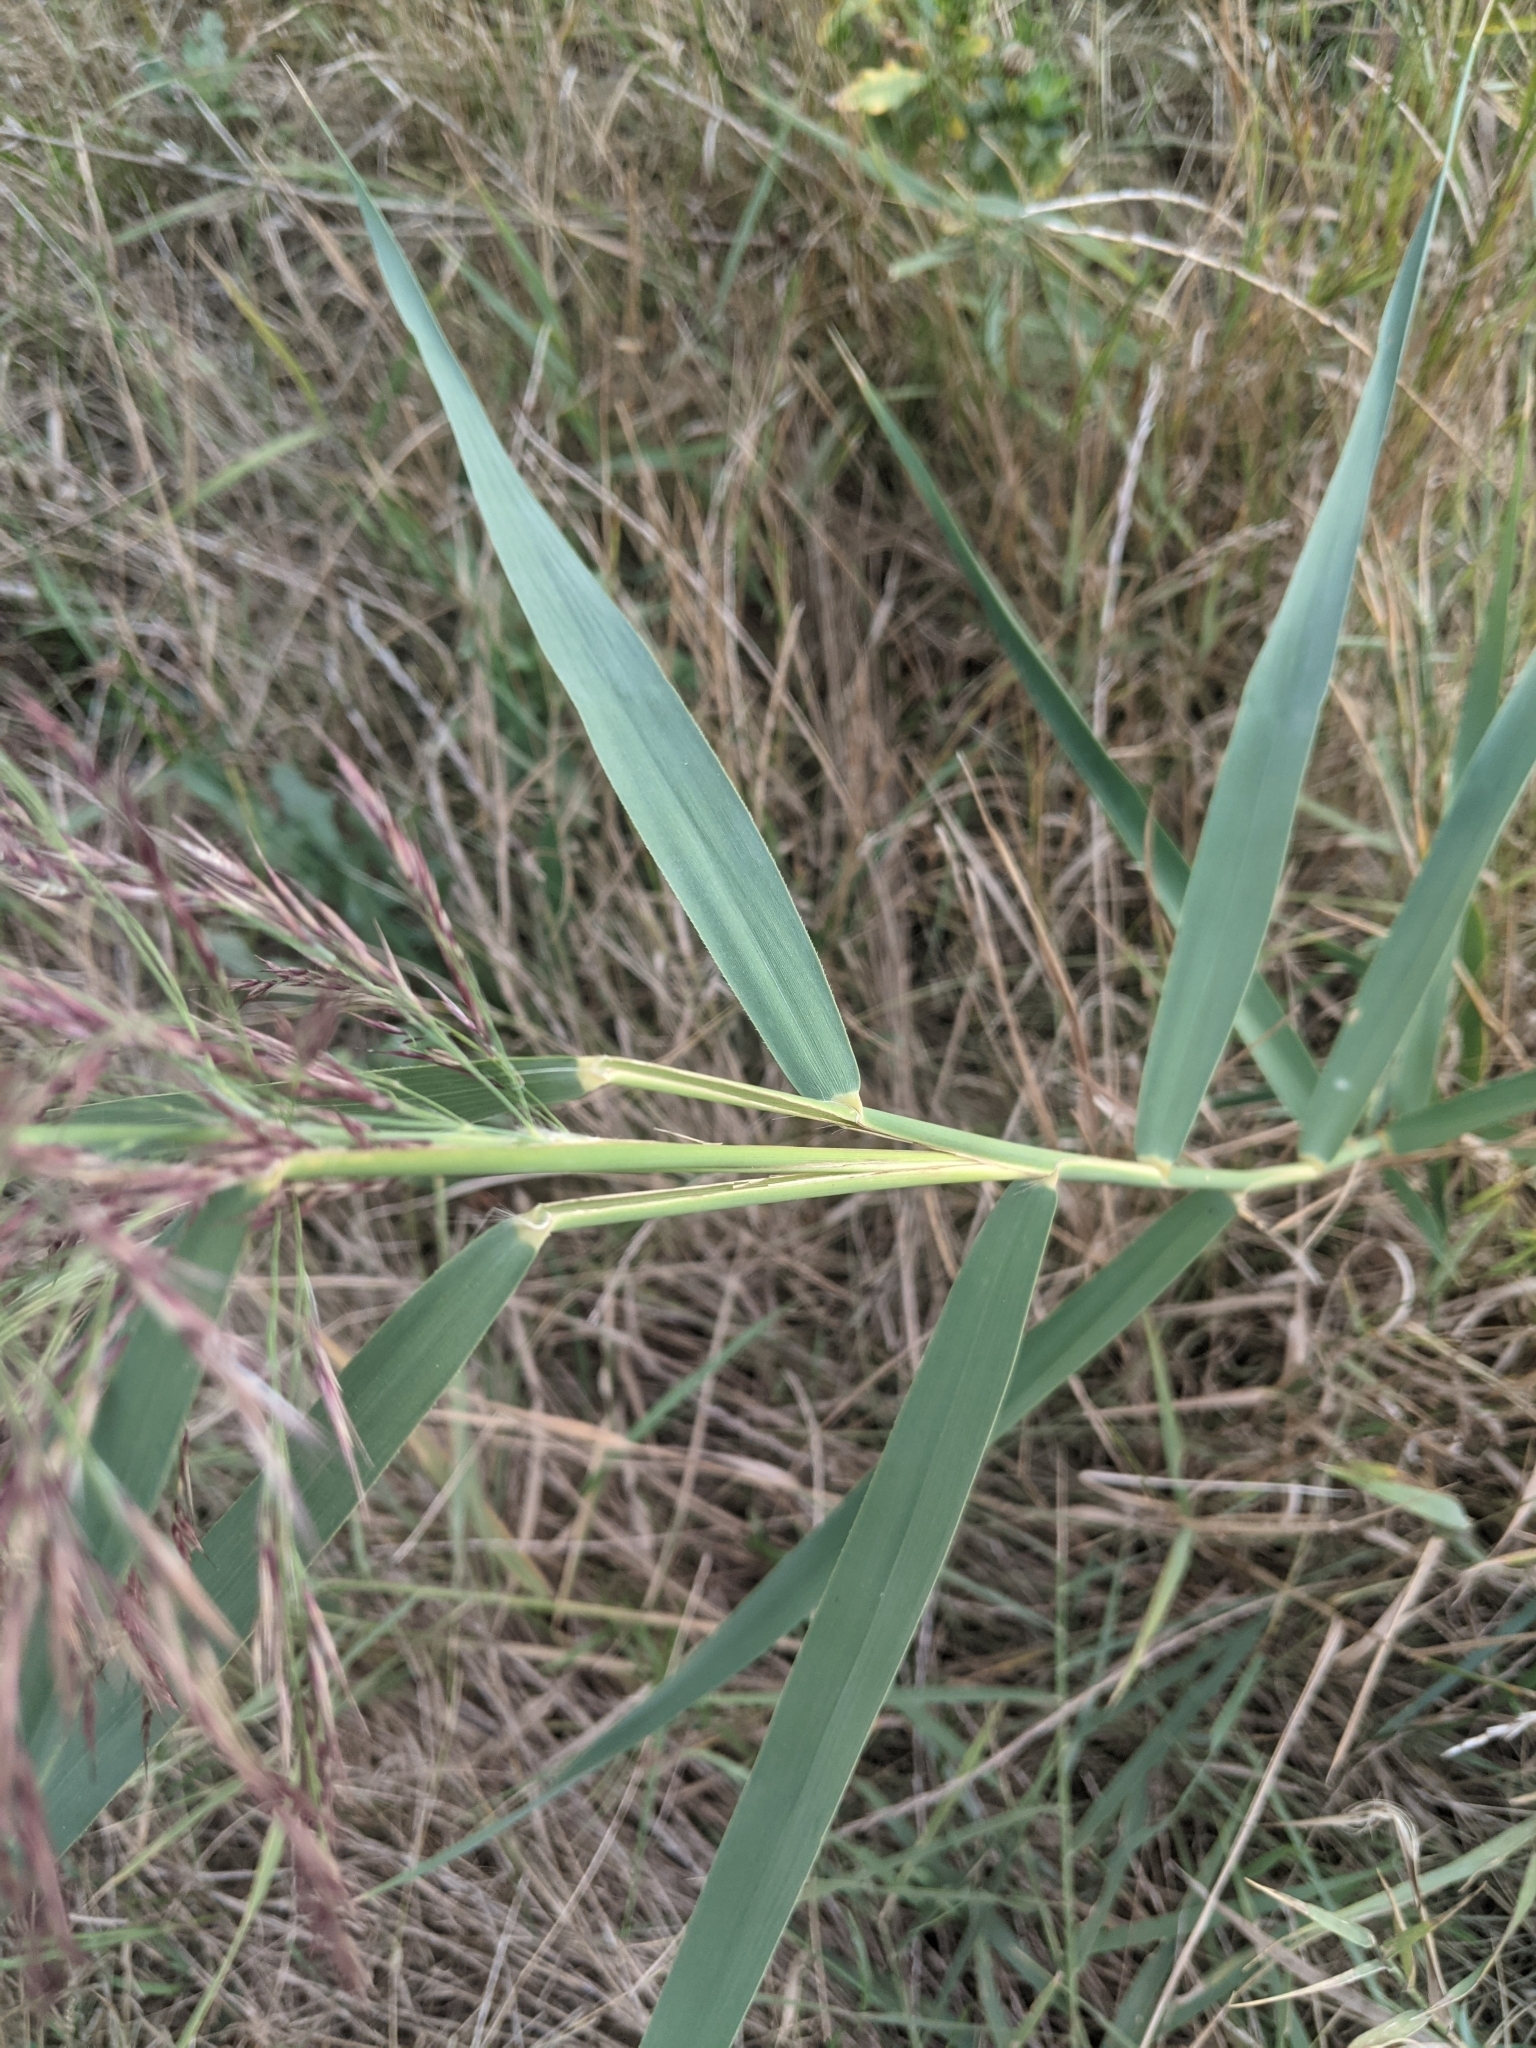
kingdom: Plantae
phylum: Tracheophyta
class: Liliopsida
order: Poales
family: Poaceae
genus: Phragmites
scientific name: Phragmites australis
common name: Common reed
